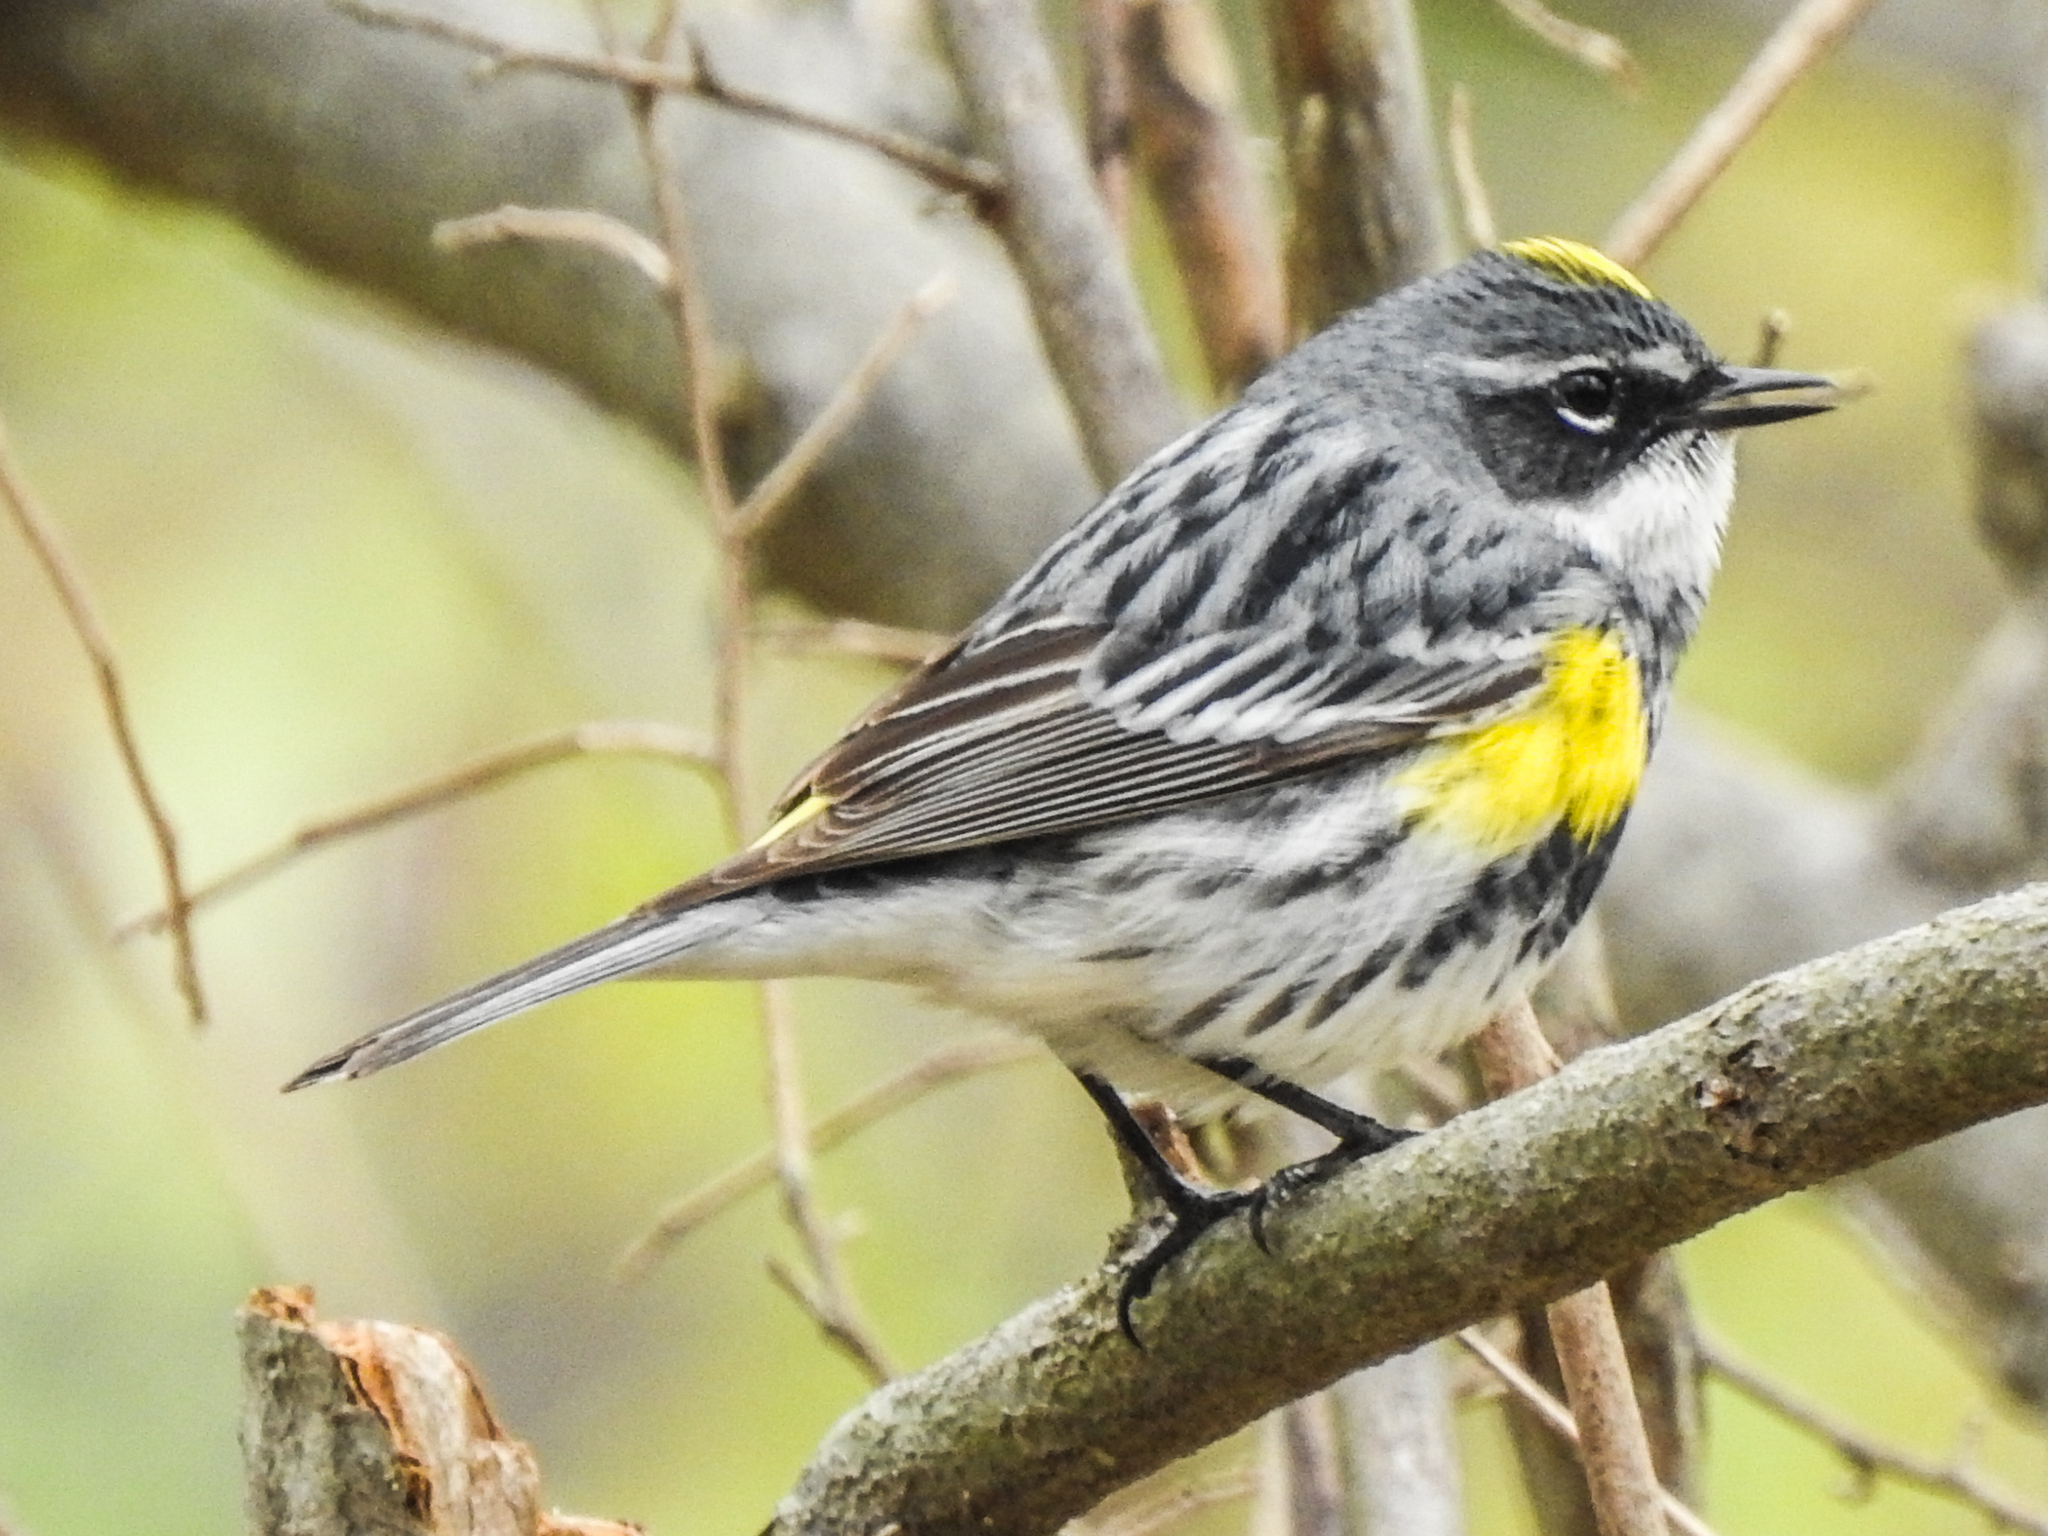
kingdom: Animalia
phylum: Chordata
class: Aves
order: Passeriformes
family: Parulidae
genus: Setophaga
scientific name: Setophaga coronata
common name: Myrtle warbler
